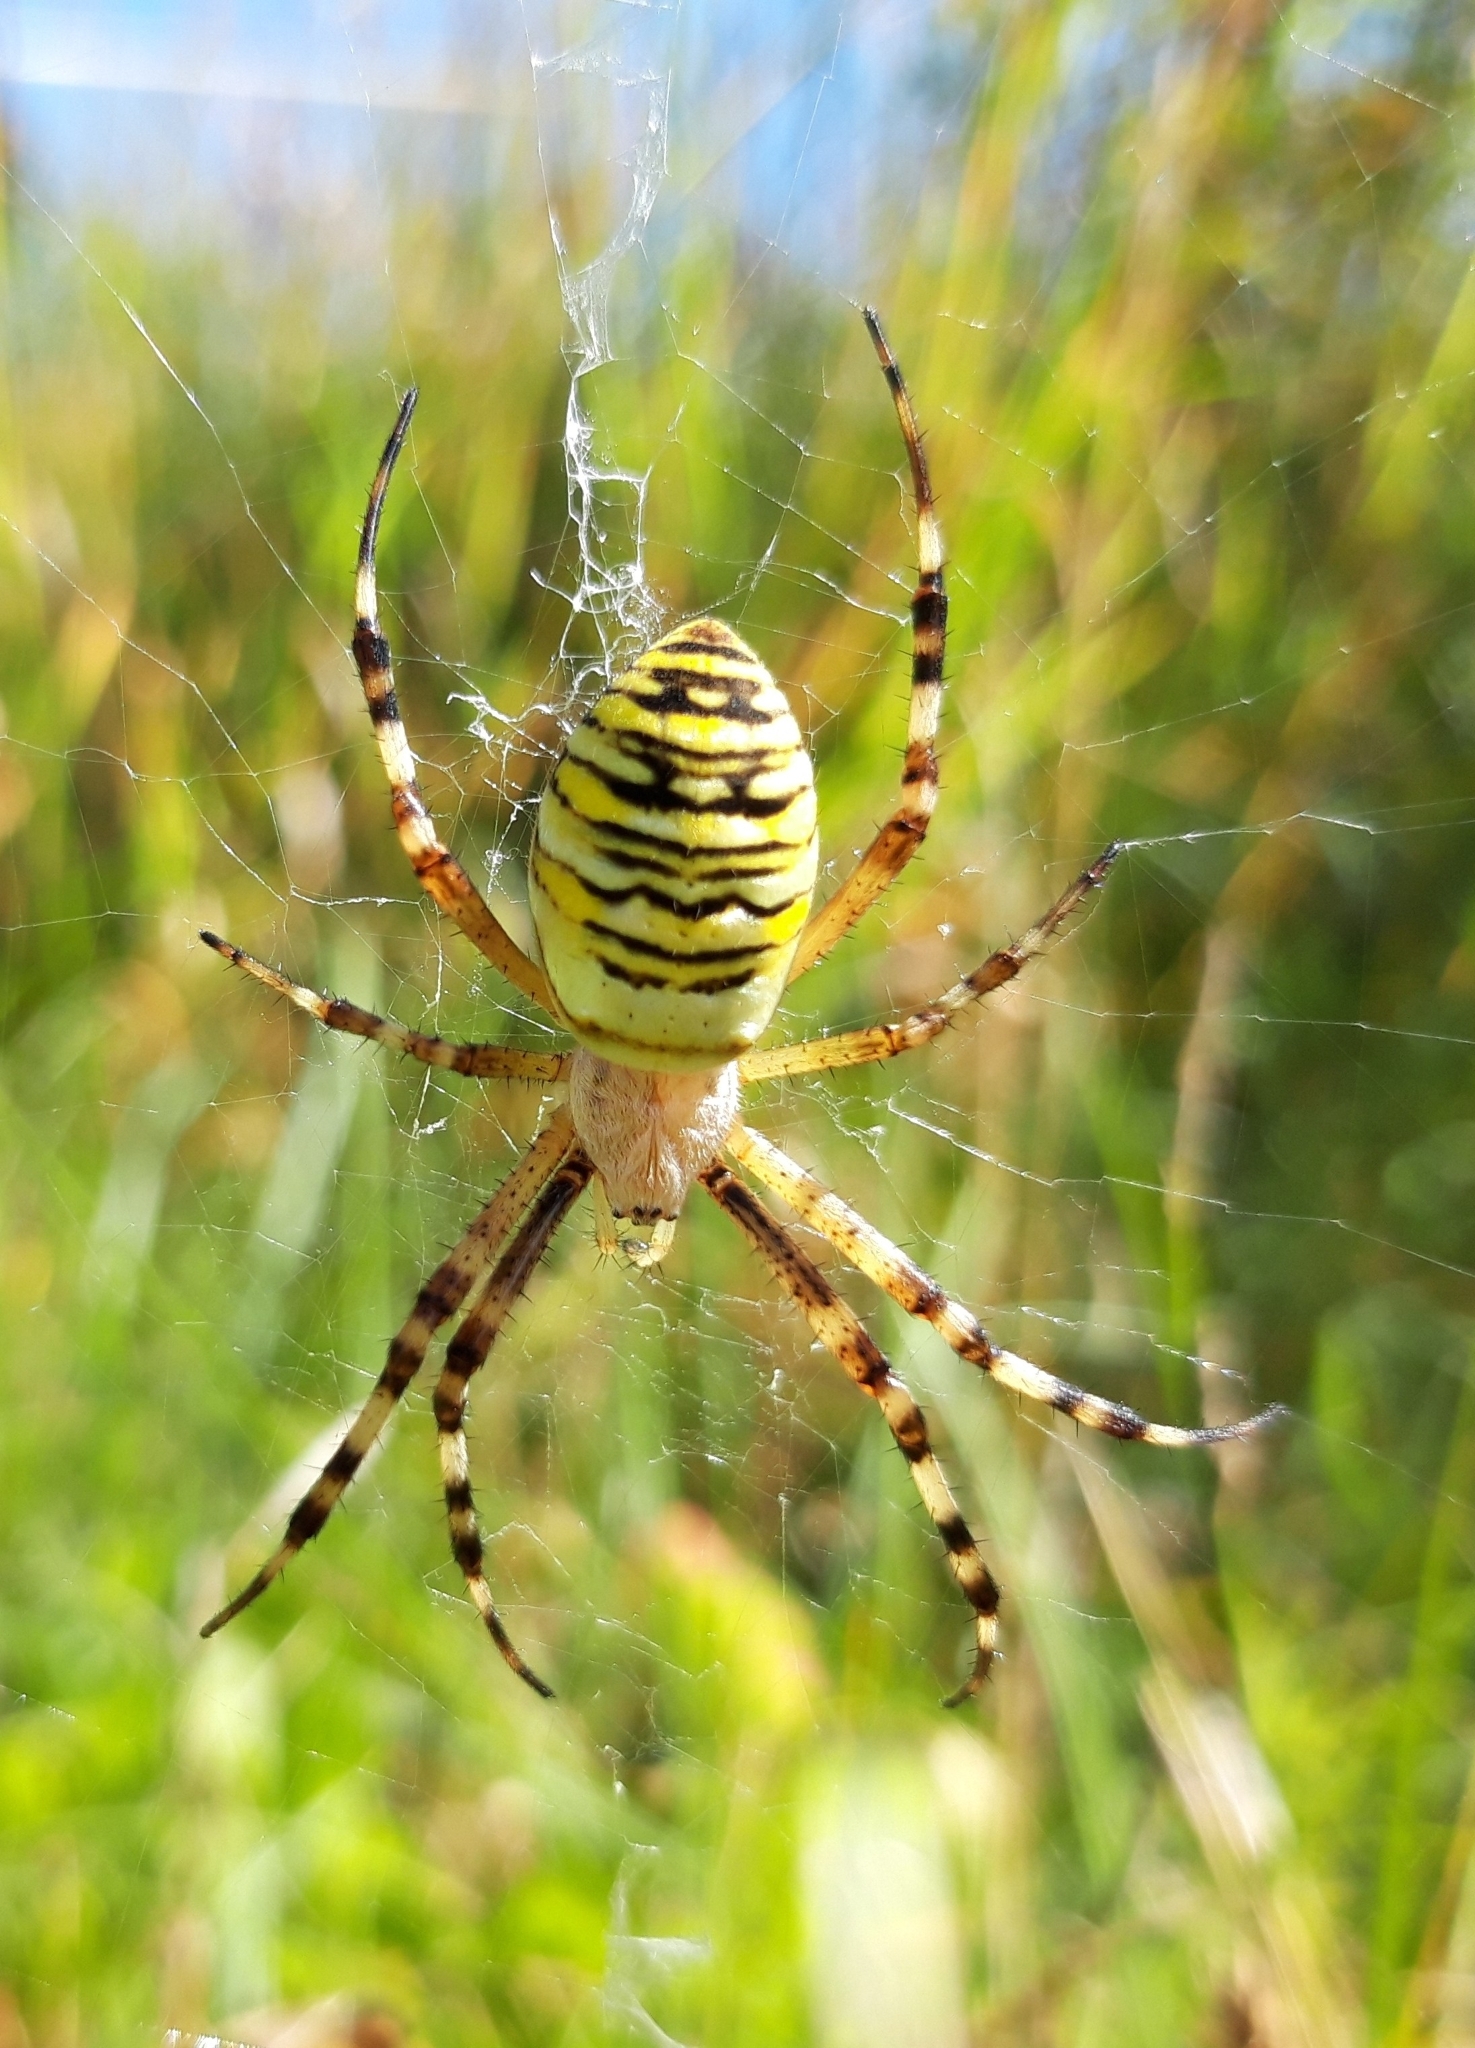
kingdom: Animalia
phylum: Arthropoda
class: Arachnida
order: Araneae
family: Araneidae
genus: Argiope
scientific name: Argiope bruennichi
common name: Wasp spider
